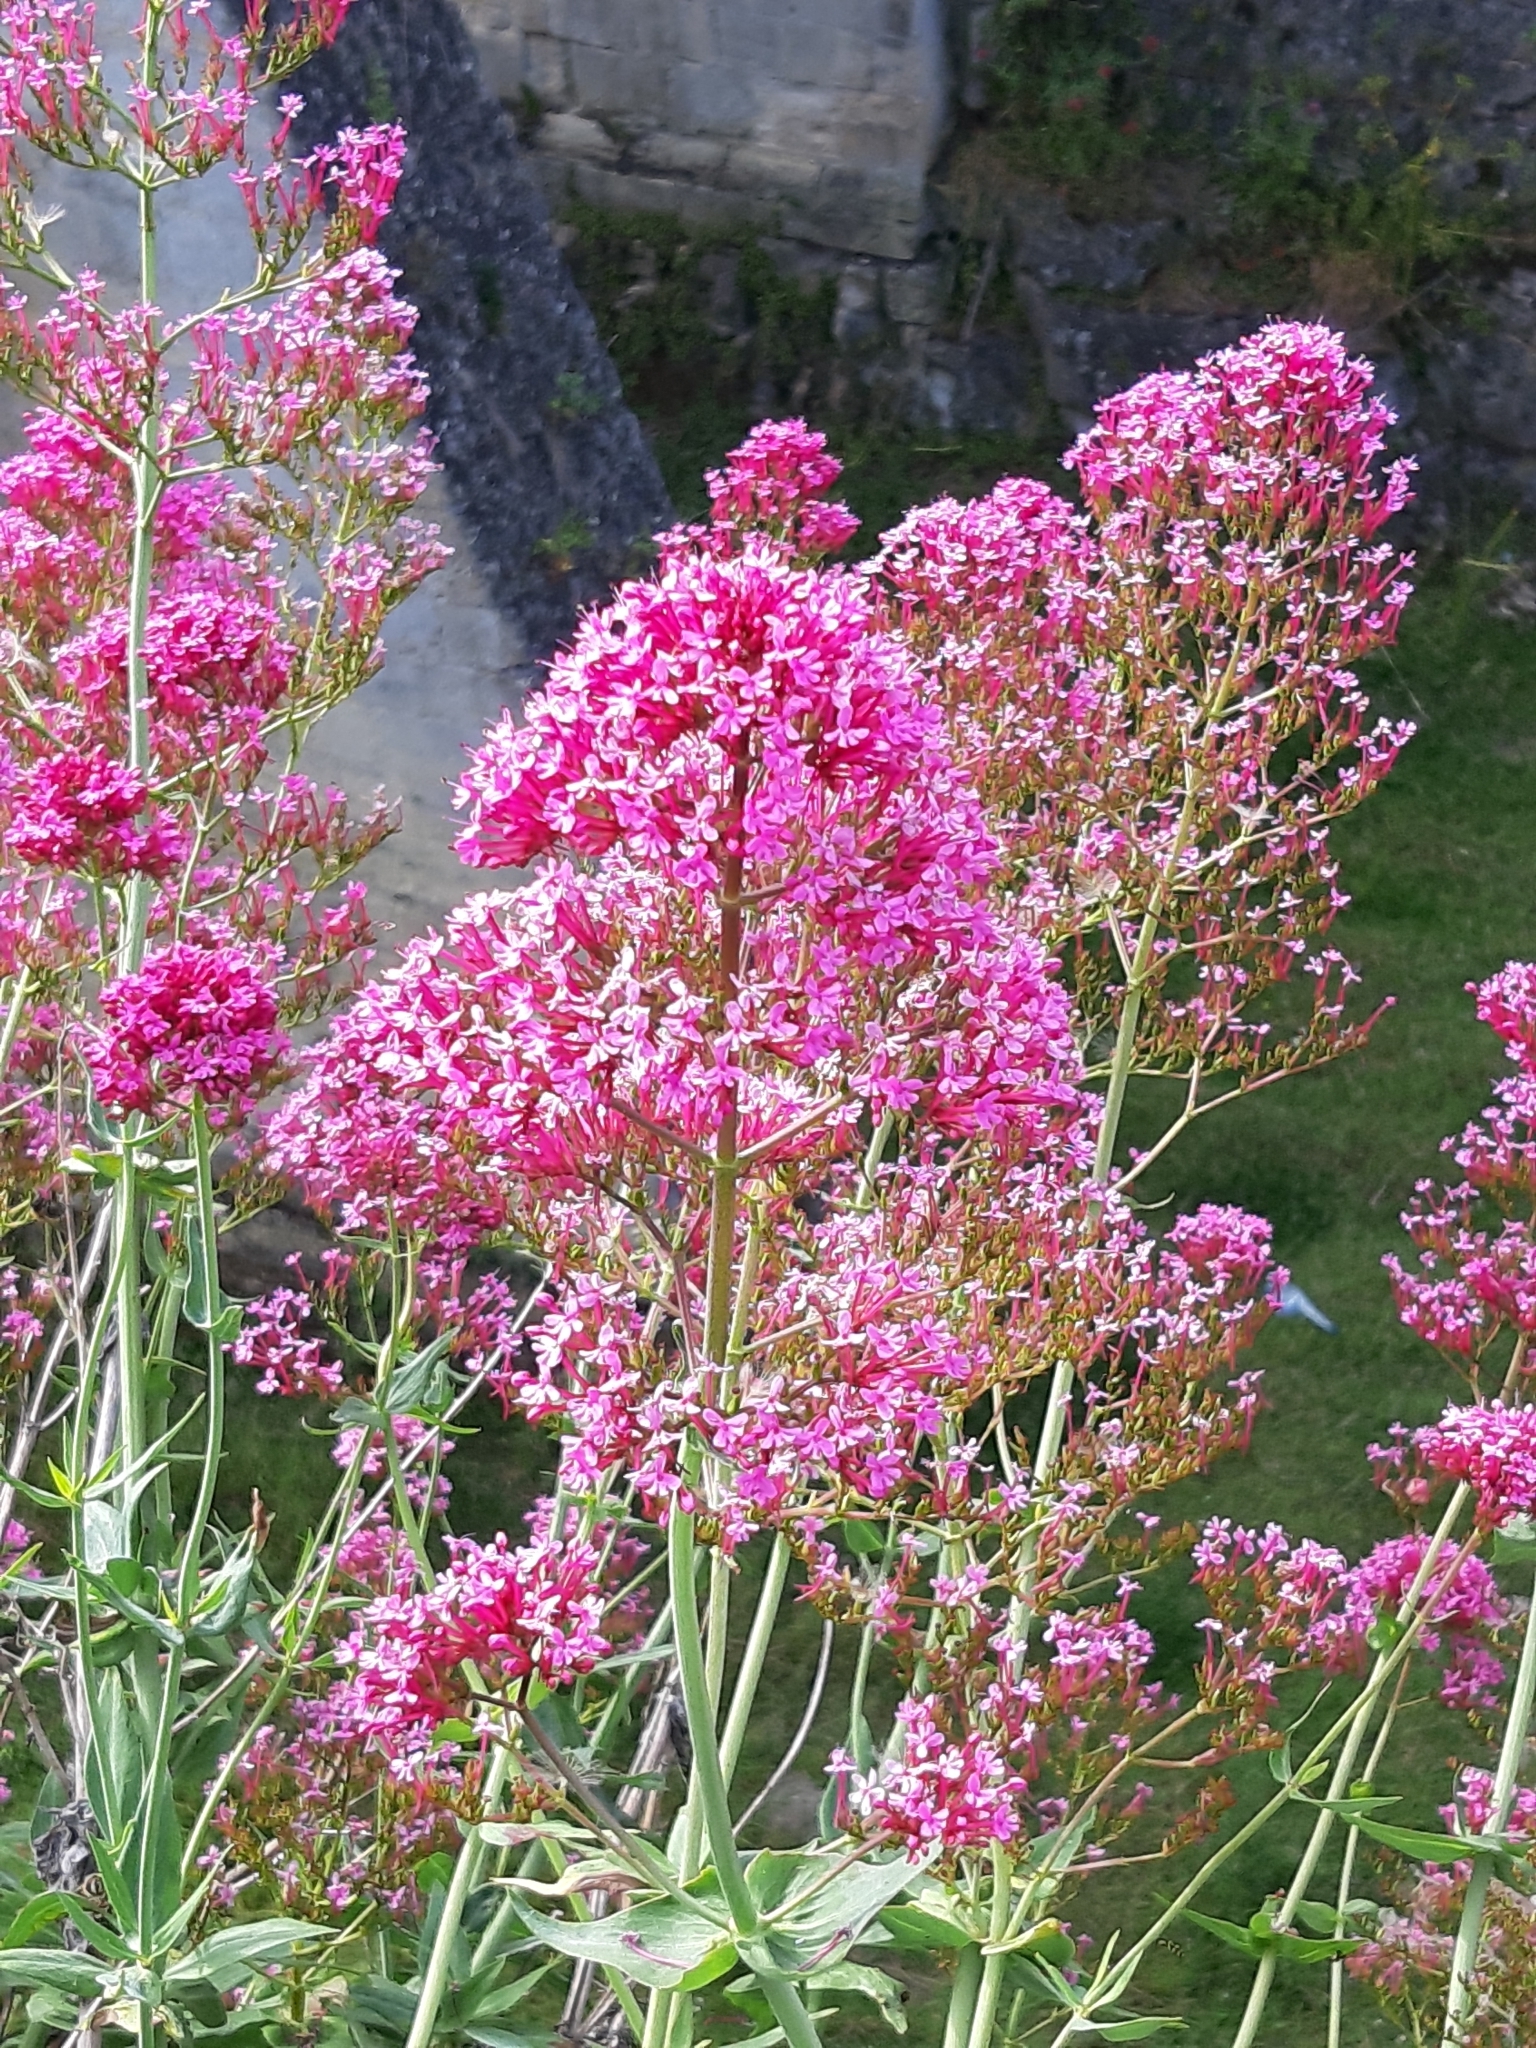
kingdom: Plantae
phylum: Tracheophyta
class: Magnoliopsida
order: Dipsacales
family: Caprifoliaceae
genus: Centranthus
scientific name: Centranthus ruber
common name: Red valerian
